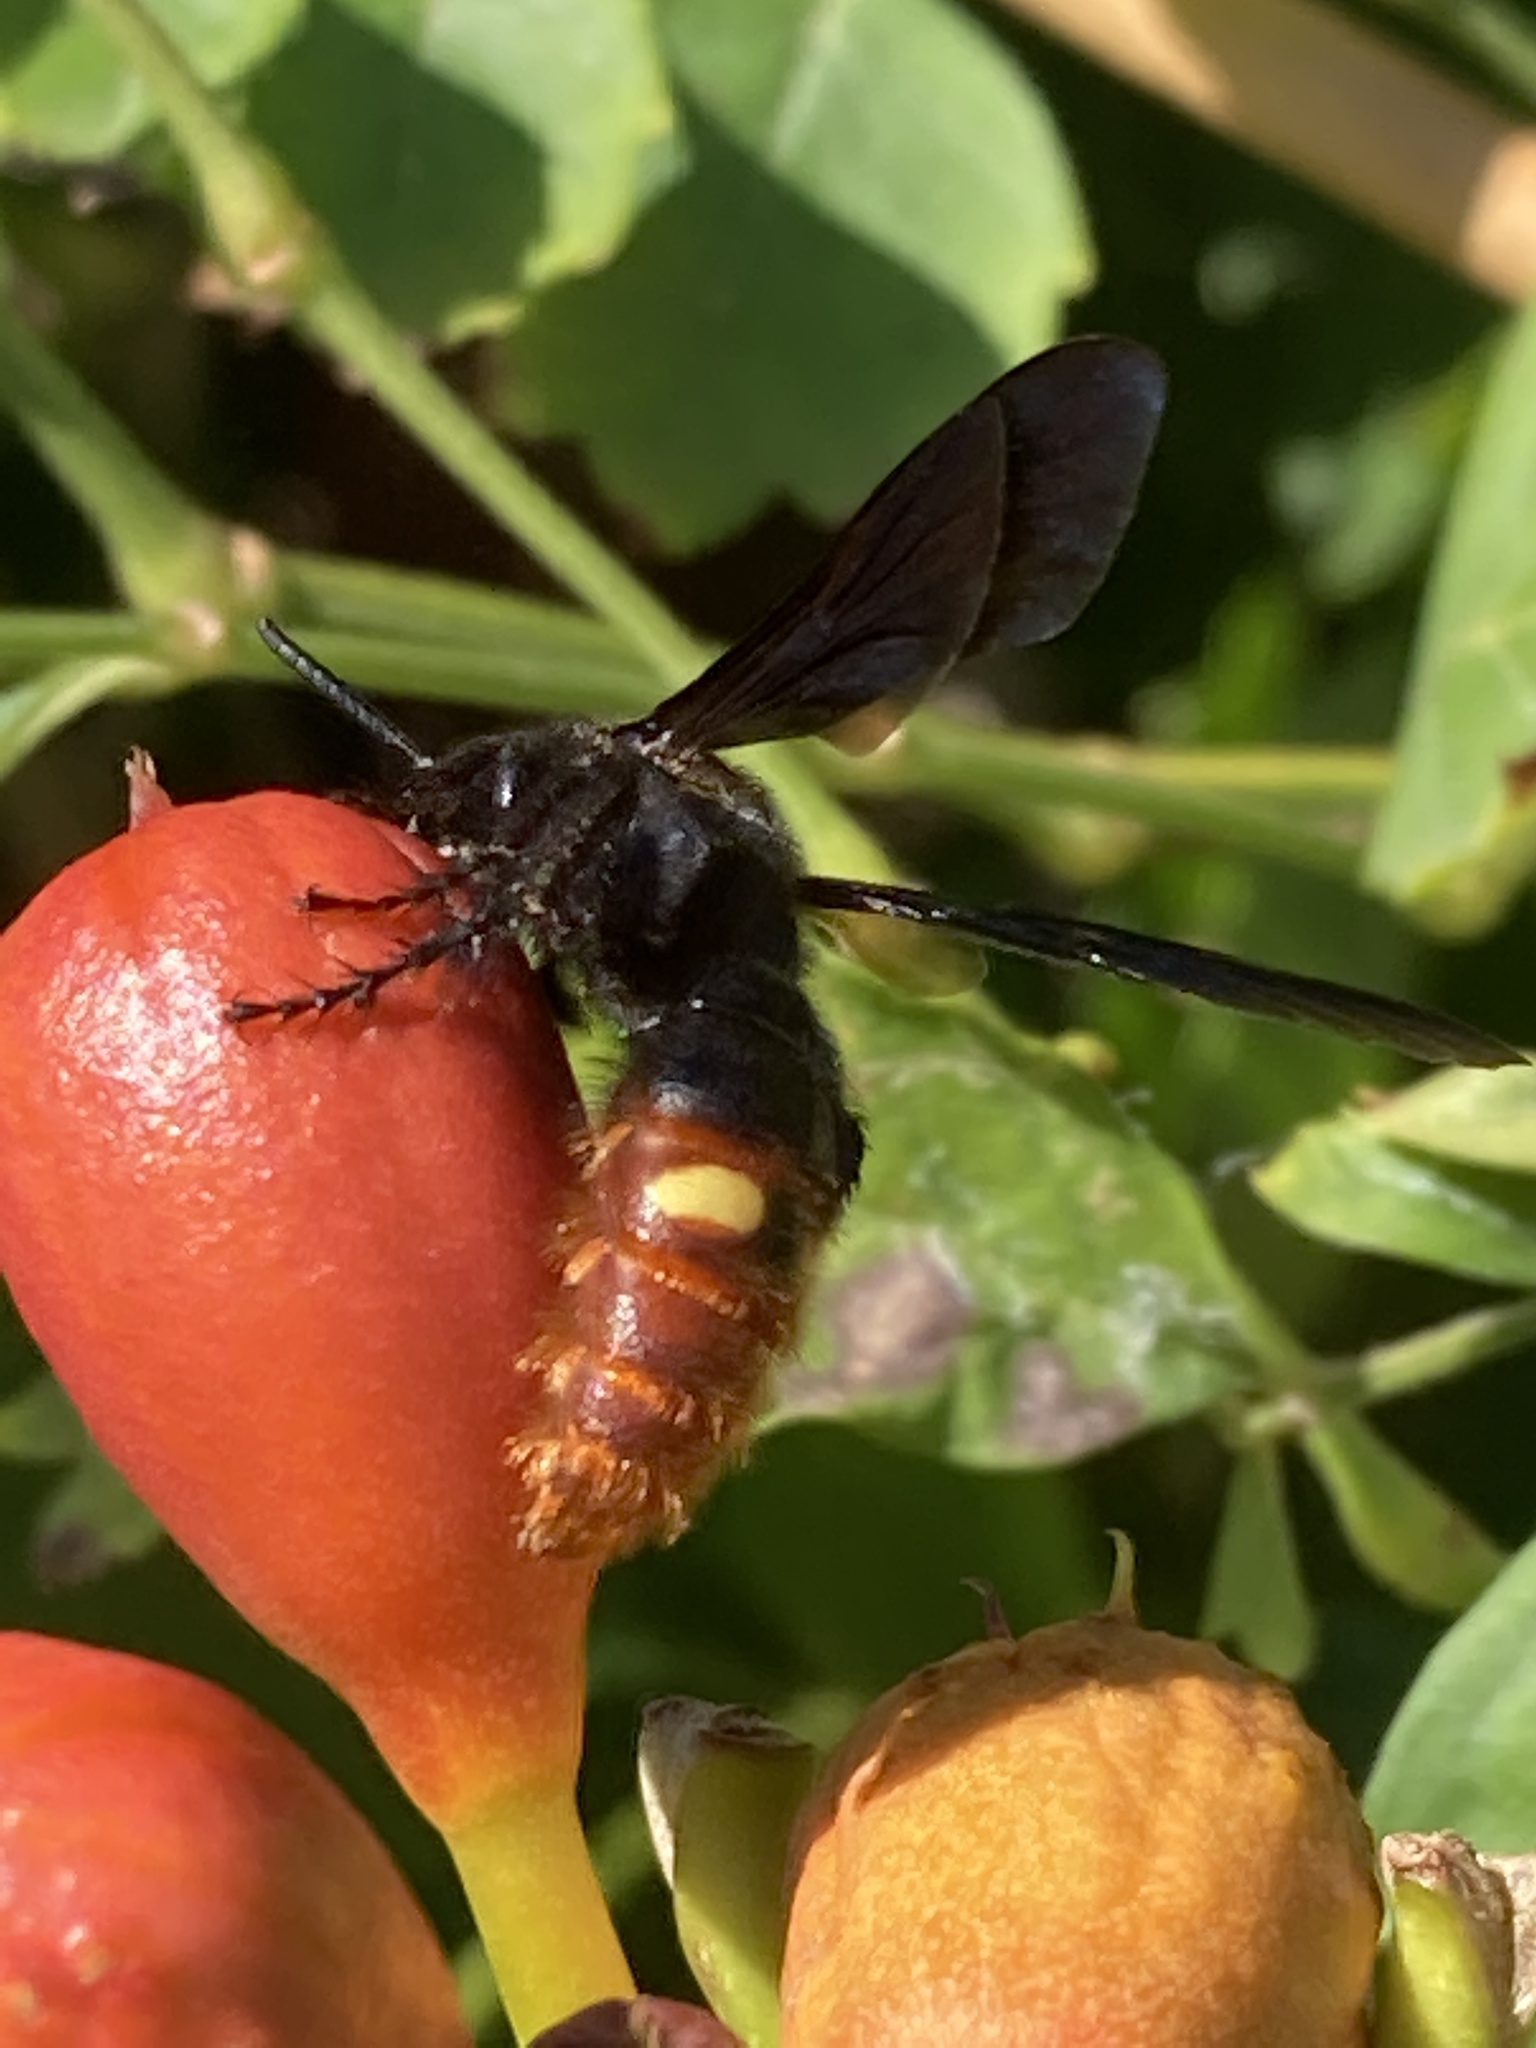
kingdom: Animalia
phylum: Arthropoda
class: Insecta
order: Hymenoptera
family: Scoliidae
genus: Scolia
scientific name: Scolia dubia
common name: Blue-winged scoliid wasp
